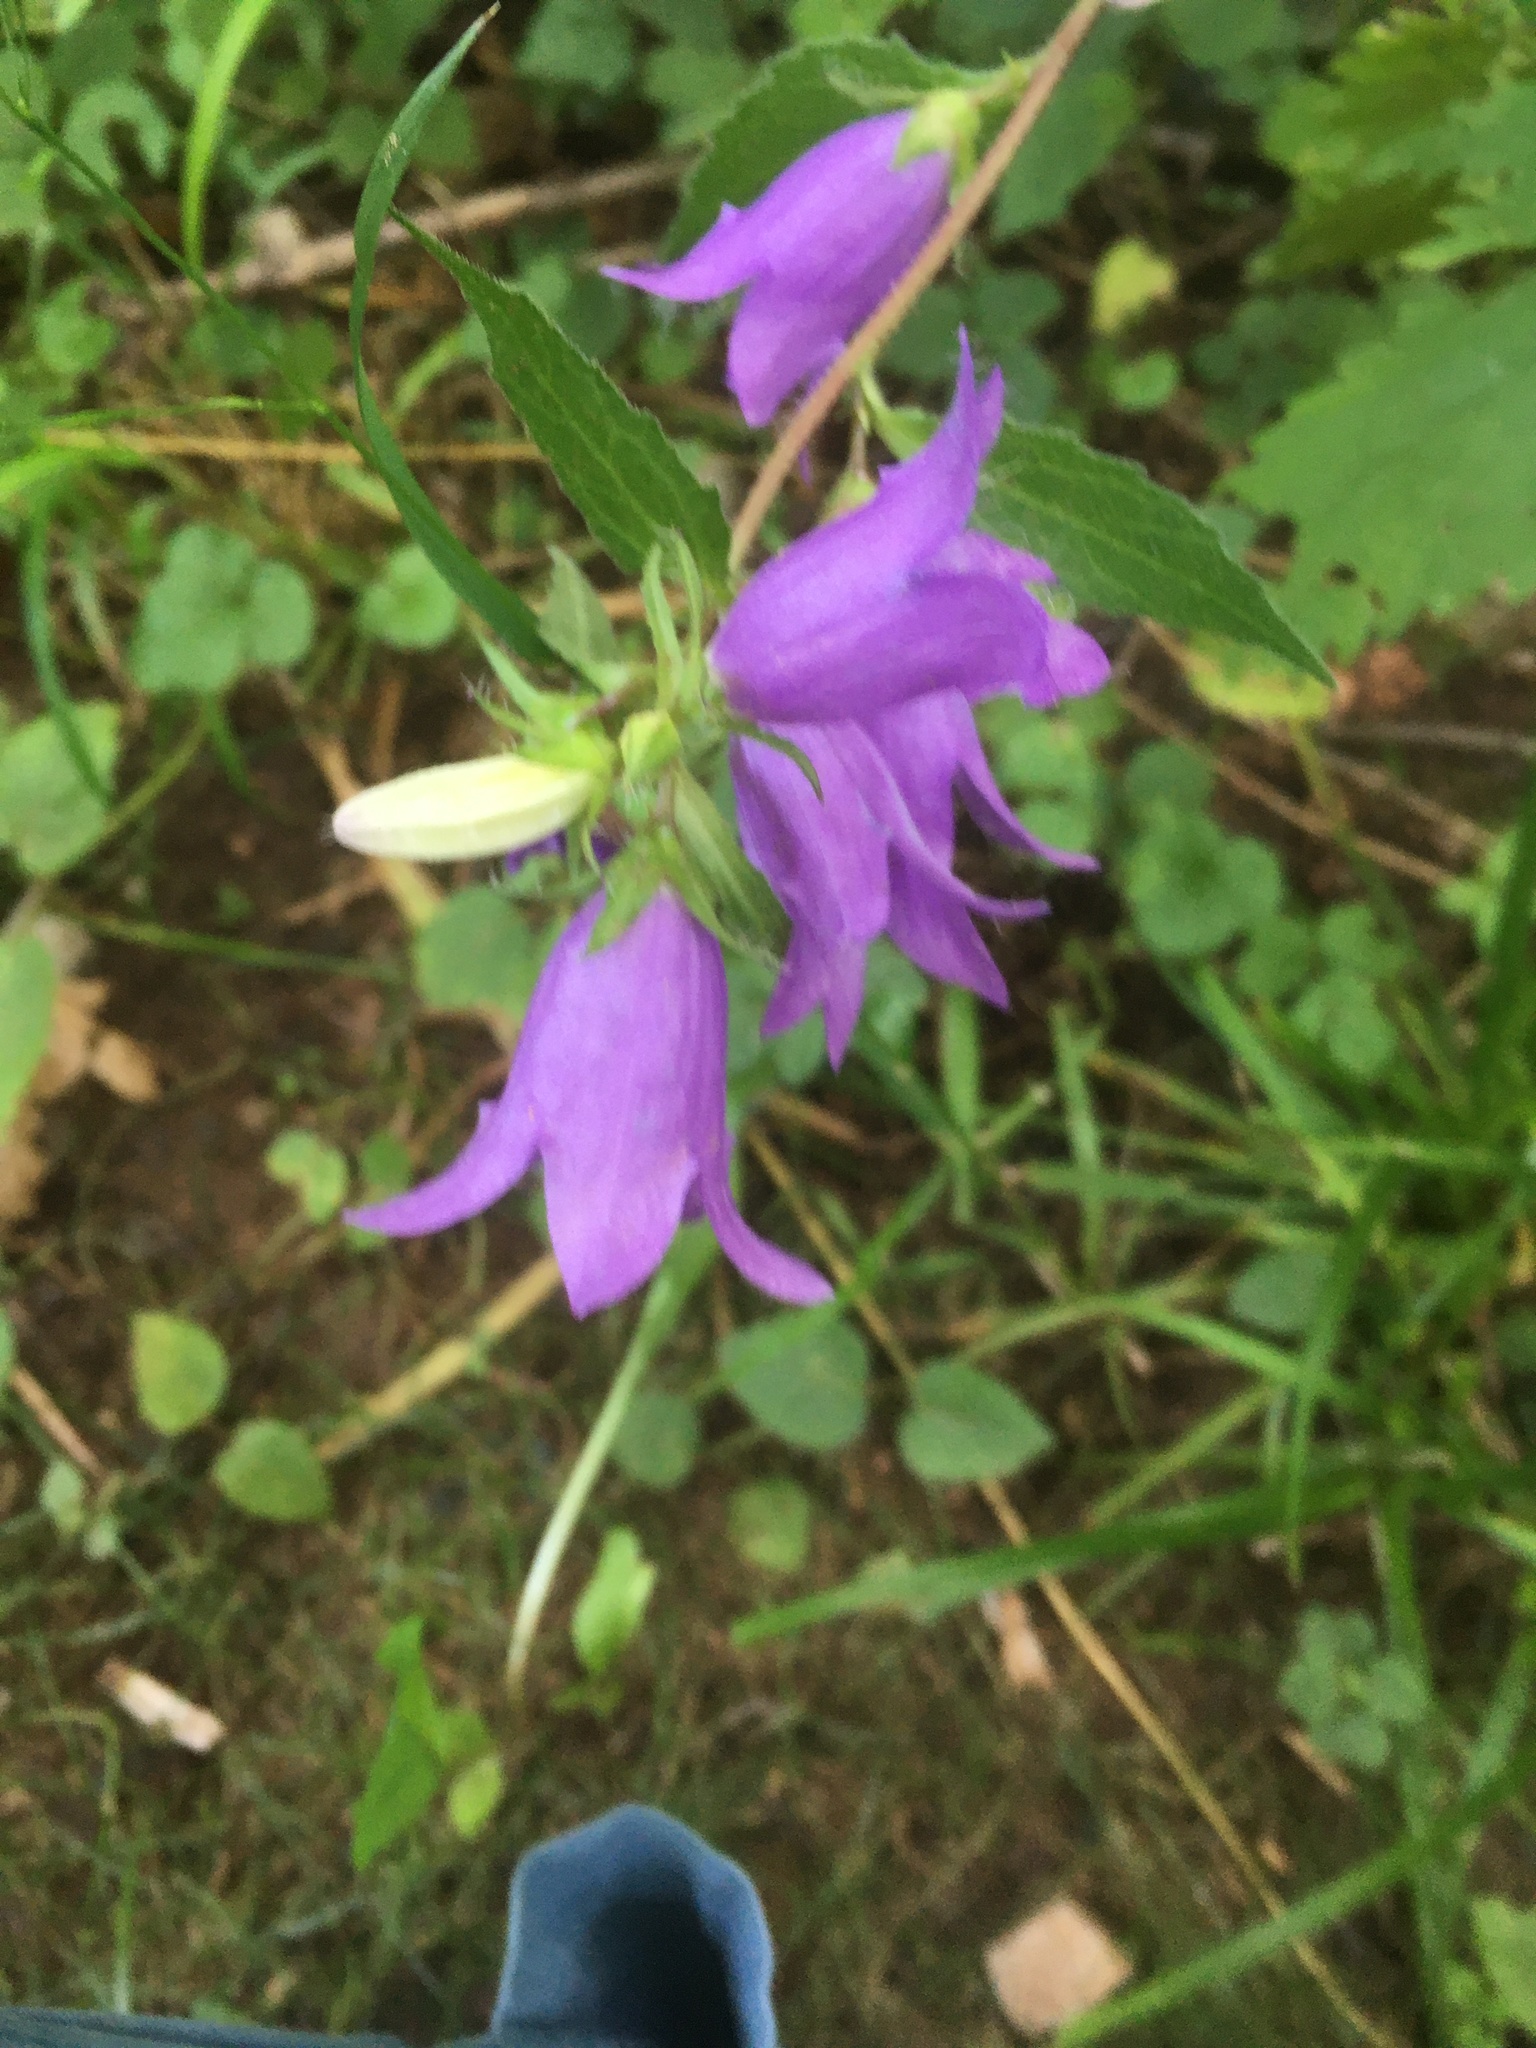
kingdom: Plantae
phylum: Tracheophyta
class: Magnoliopsida
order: Asterales
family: Campanulaceae
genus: Campanula
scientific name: Campanula trachelium
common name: Nettle-leaved bellflower
